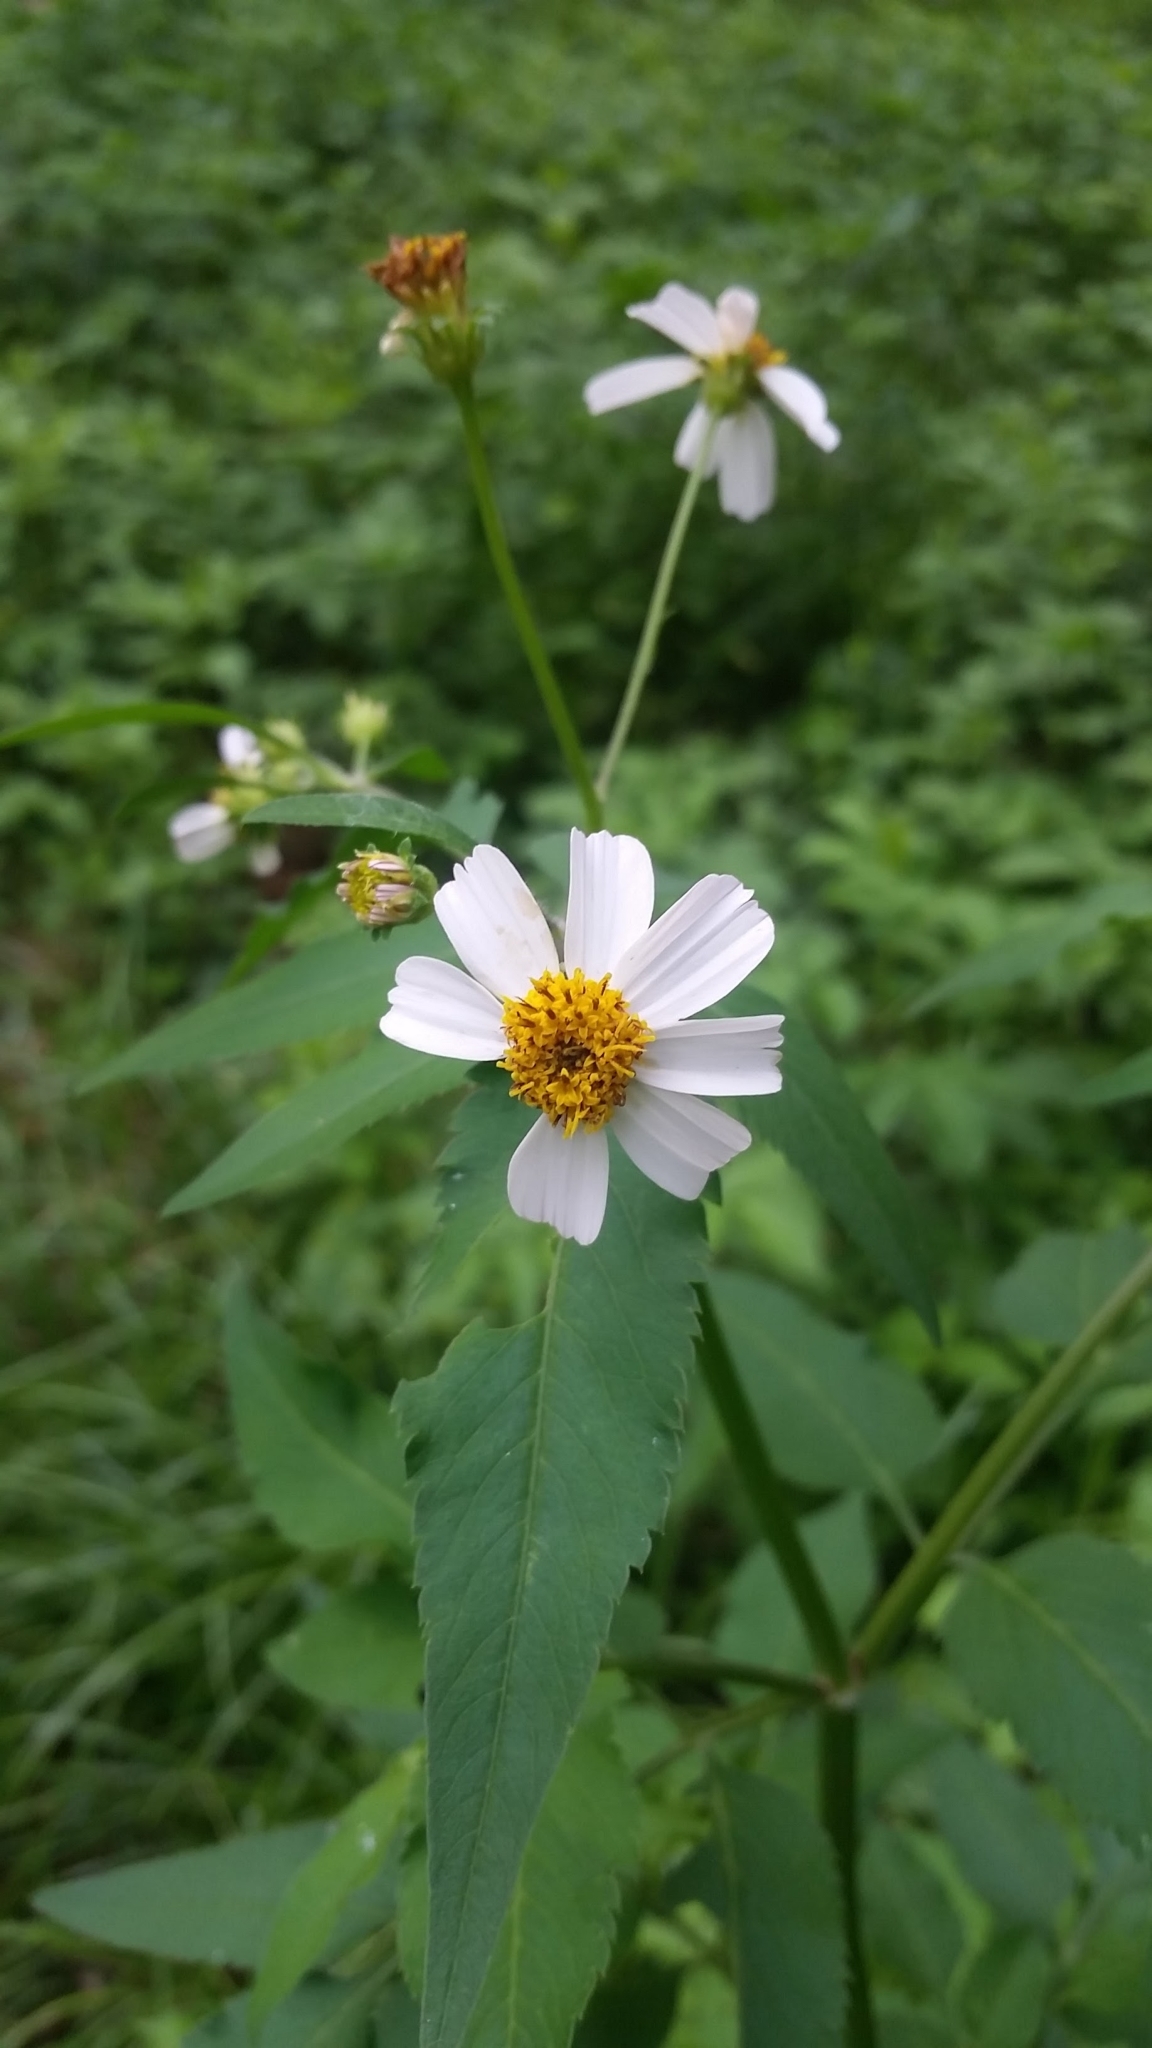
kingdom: Plantae
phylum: Tracheophyta
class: Magnoliopsida
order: Asterales
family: Asteraceae
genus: Bidens
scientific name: Bidens alba
